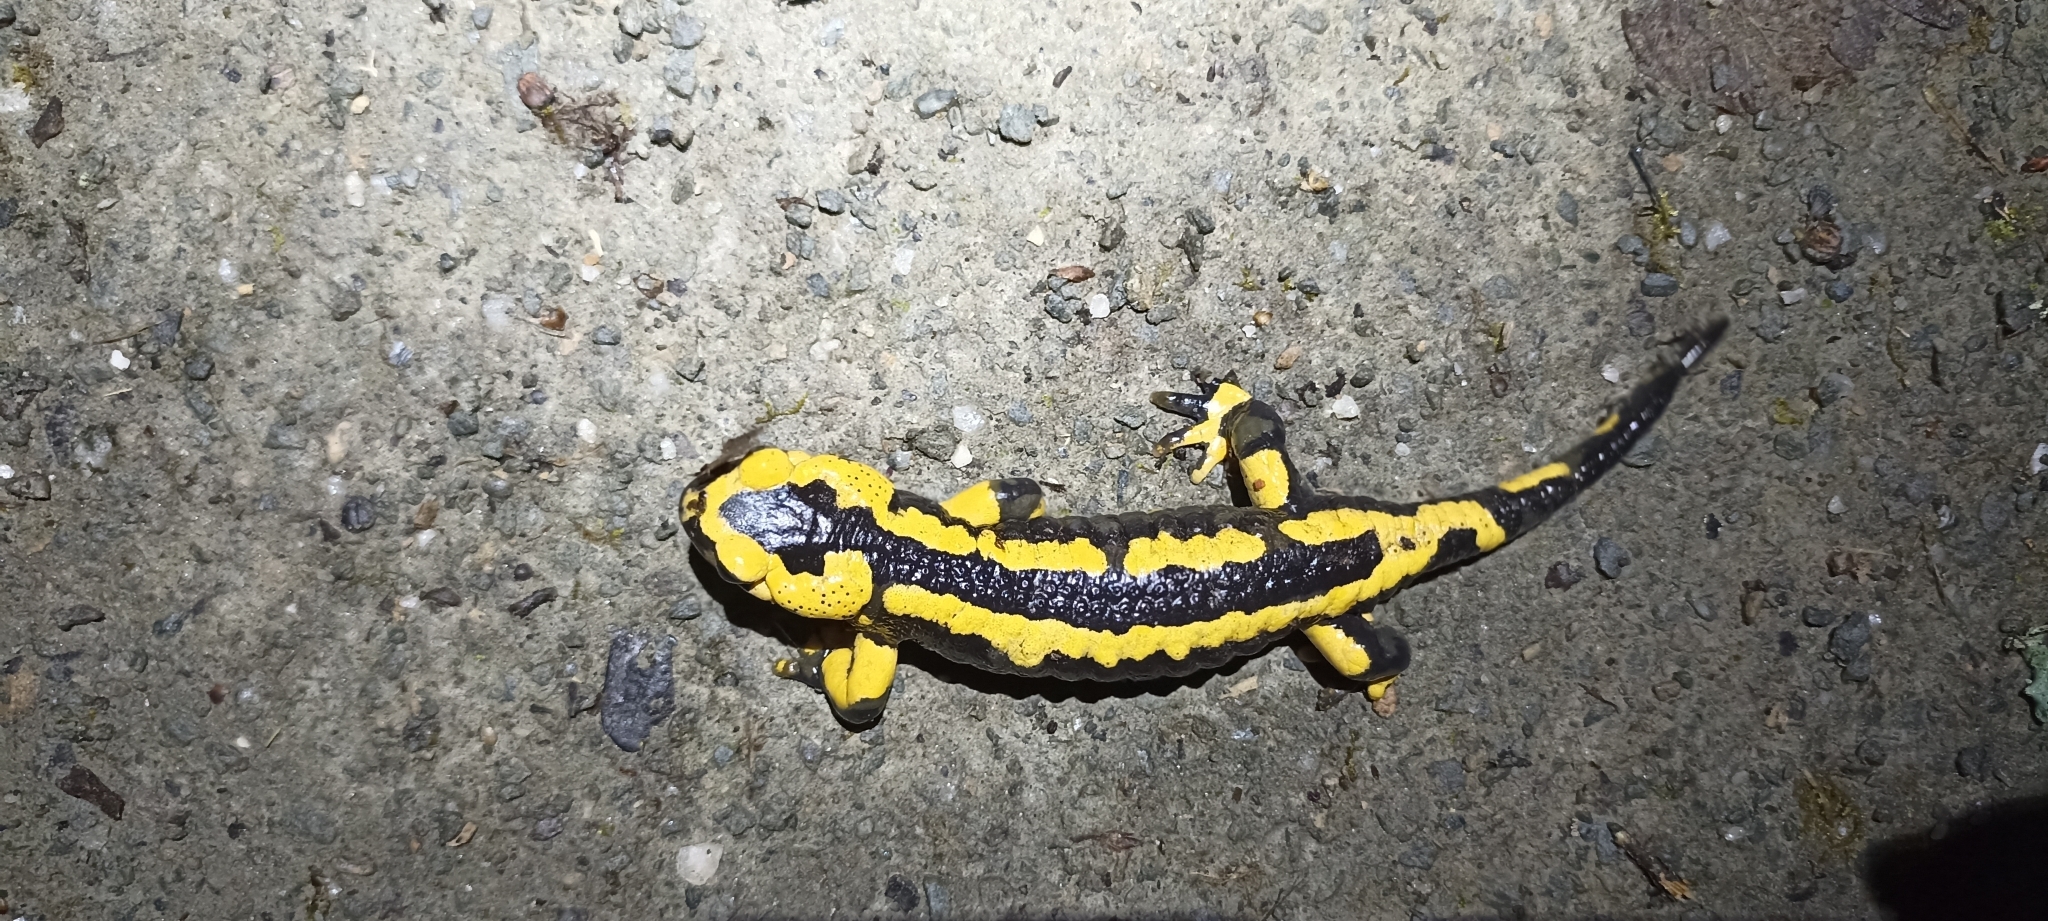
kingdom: Animalia
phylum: Chordata
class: Amphibia
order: Caudata
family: Salamandridae
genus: Salamandra
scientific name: Salamandra salamandra
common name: Fire salamander
